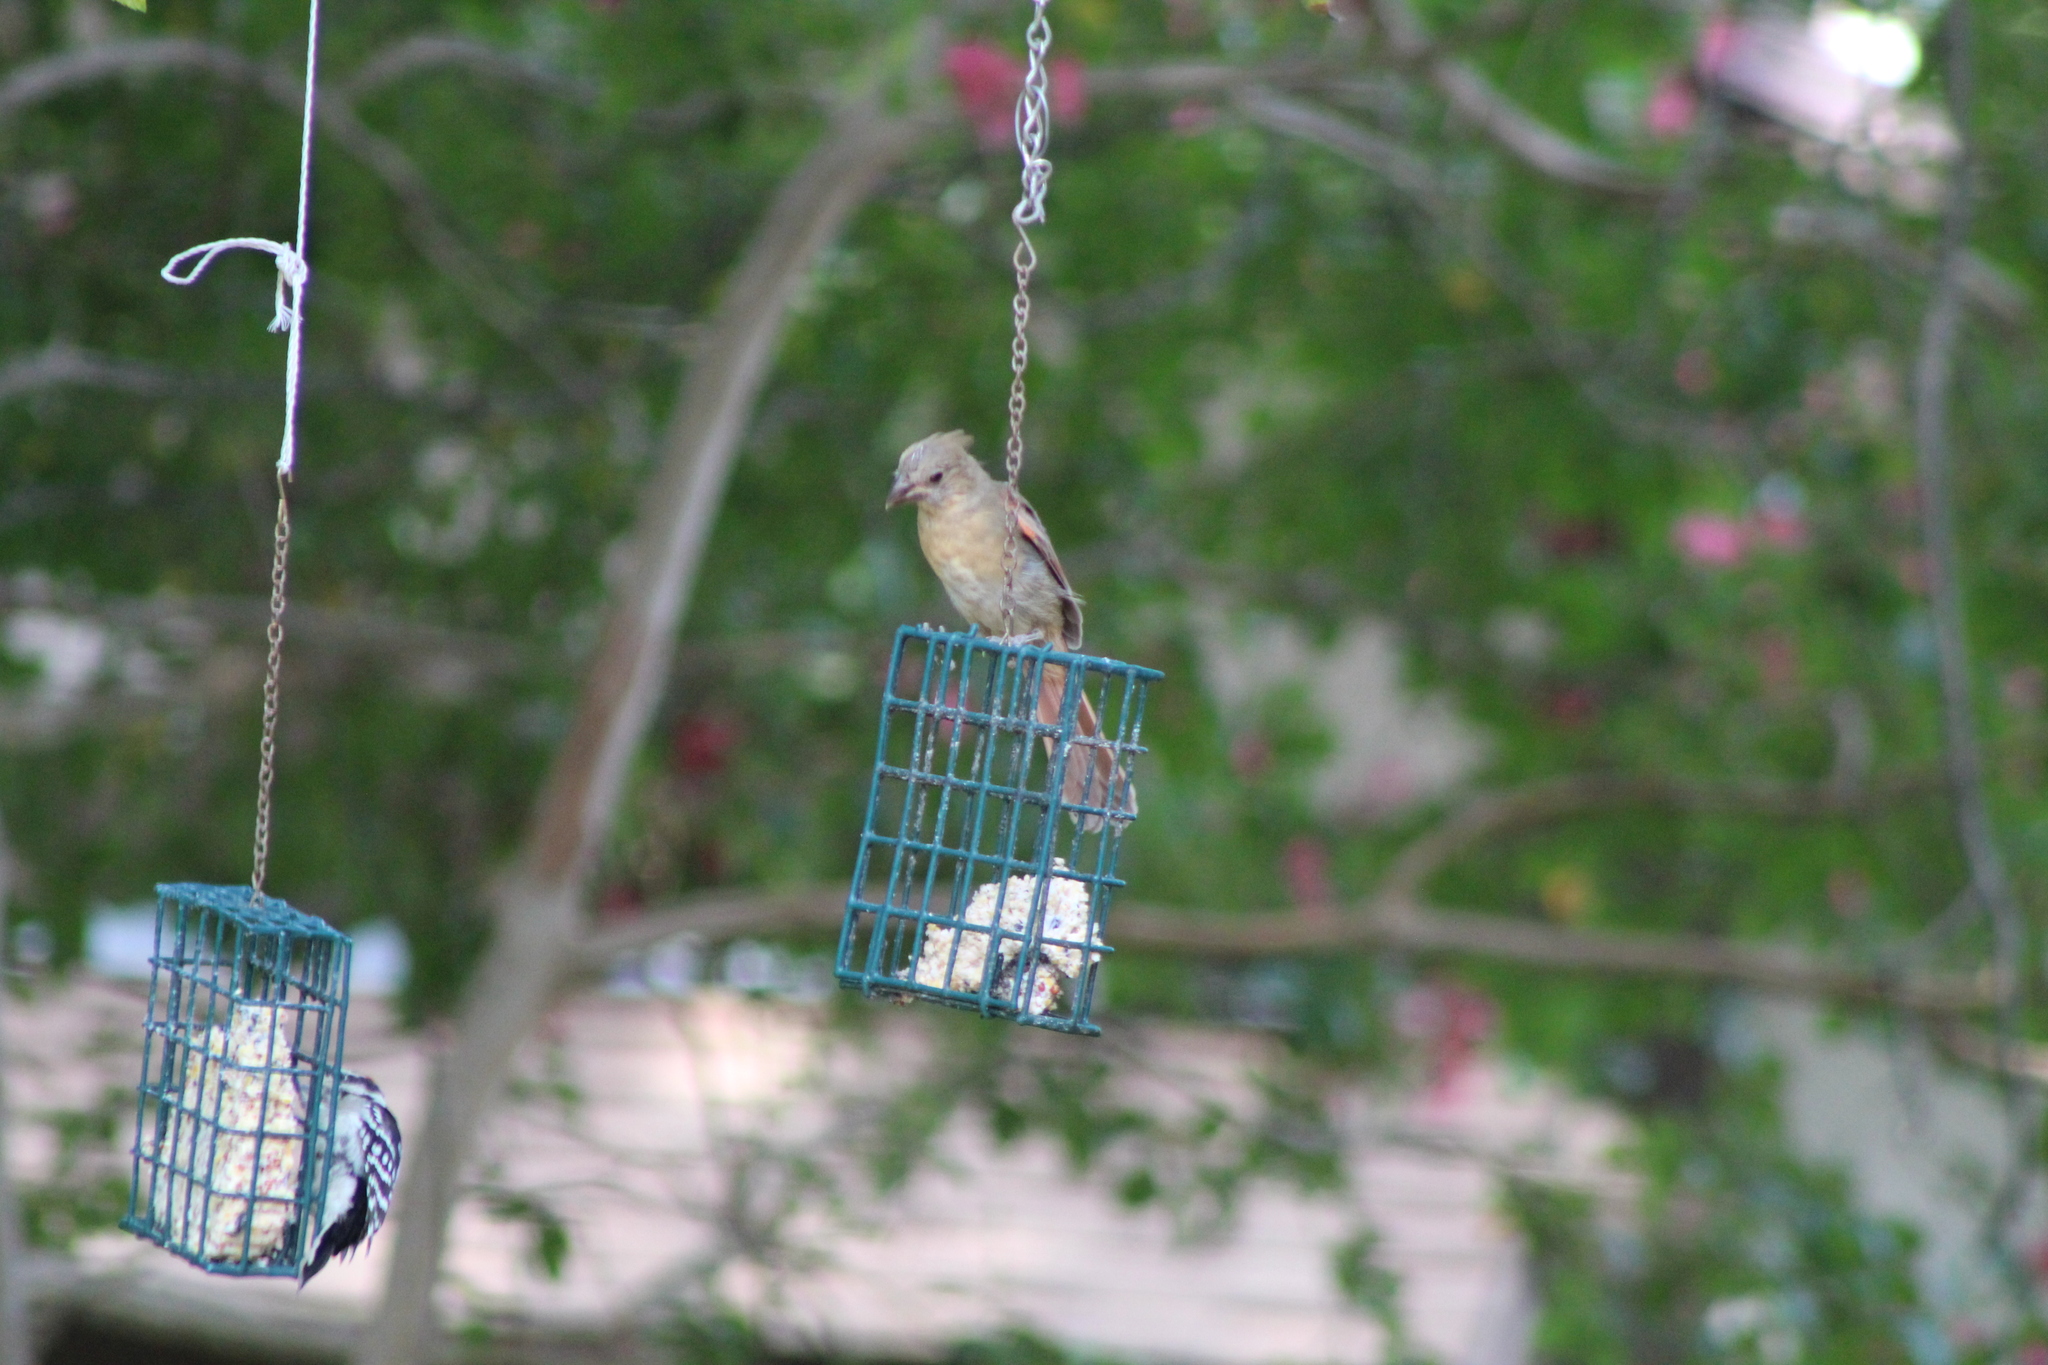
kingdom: Animalia
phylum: Chordata
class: Aves
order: Passeriformes
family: Cardinalidae
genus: Cardinalis
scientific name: Cardinalis cardinalis
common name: Northern cardinal
